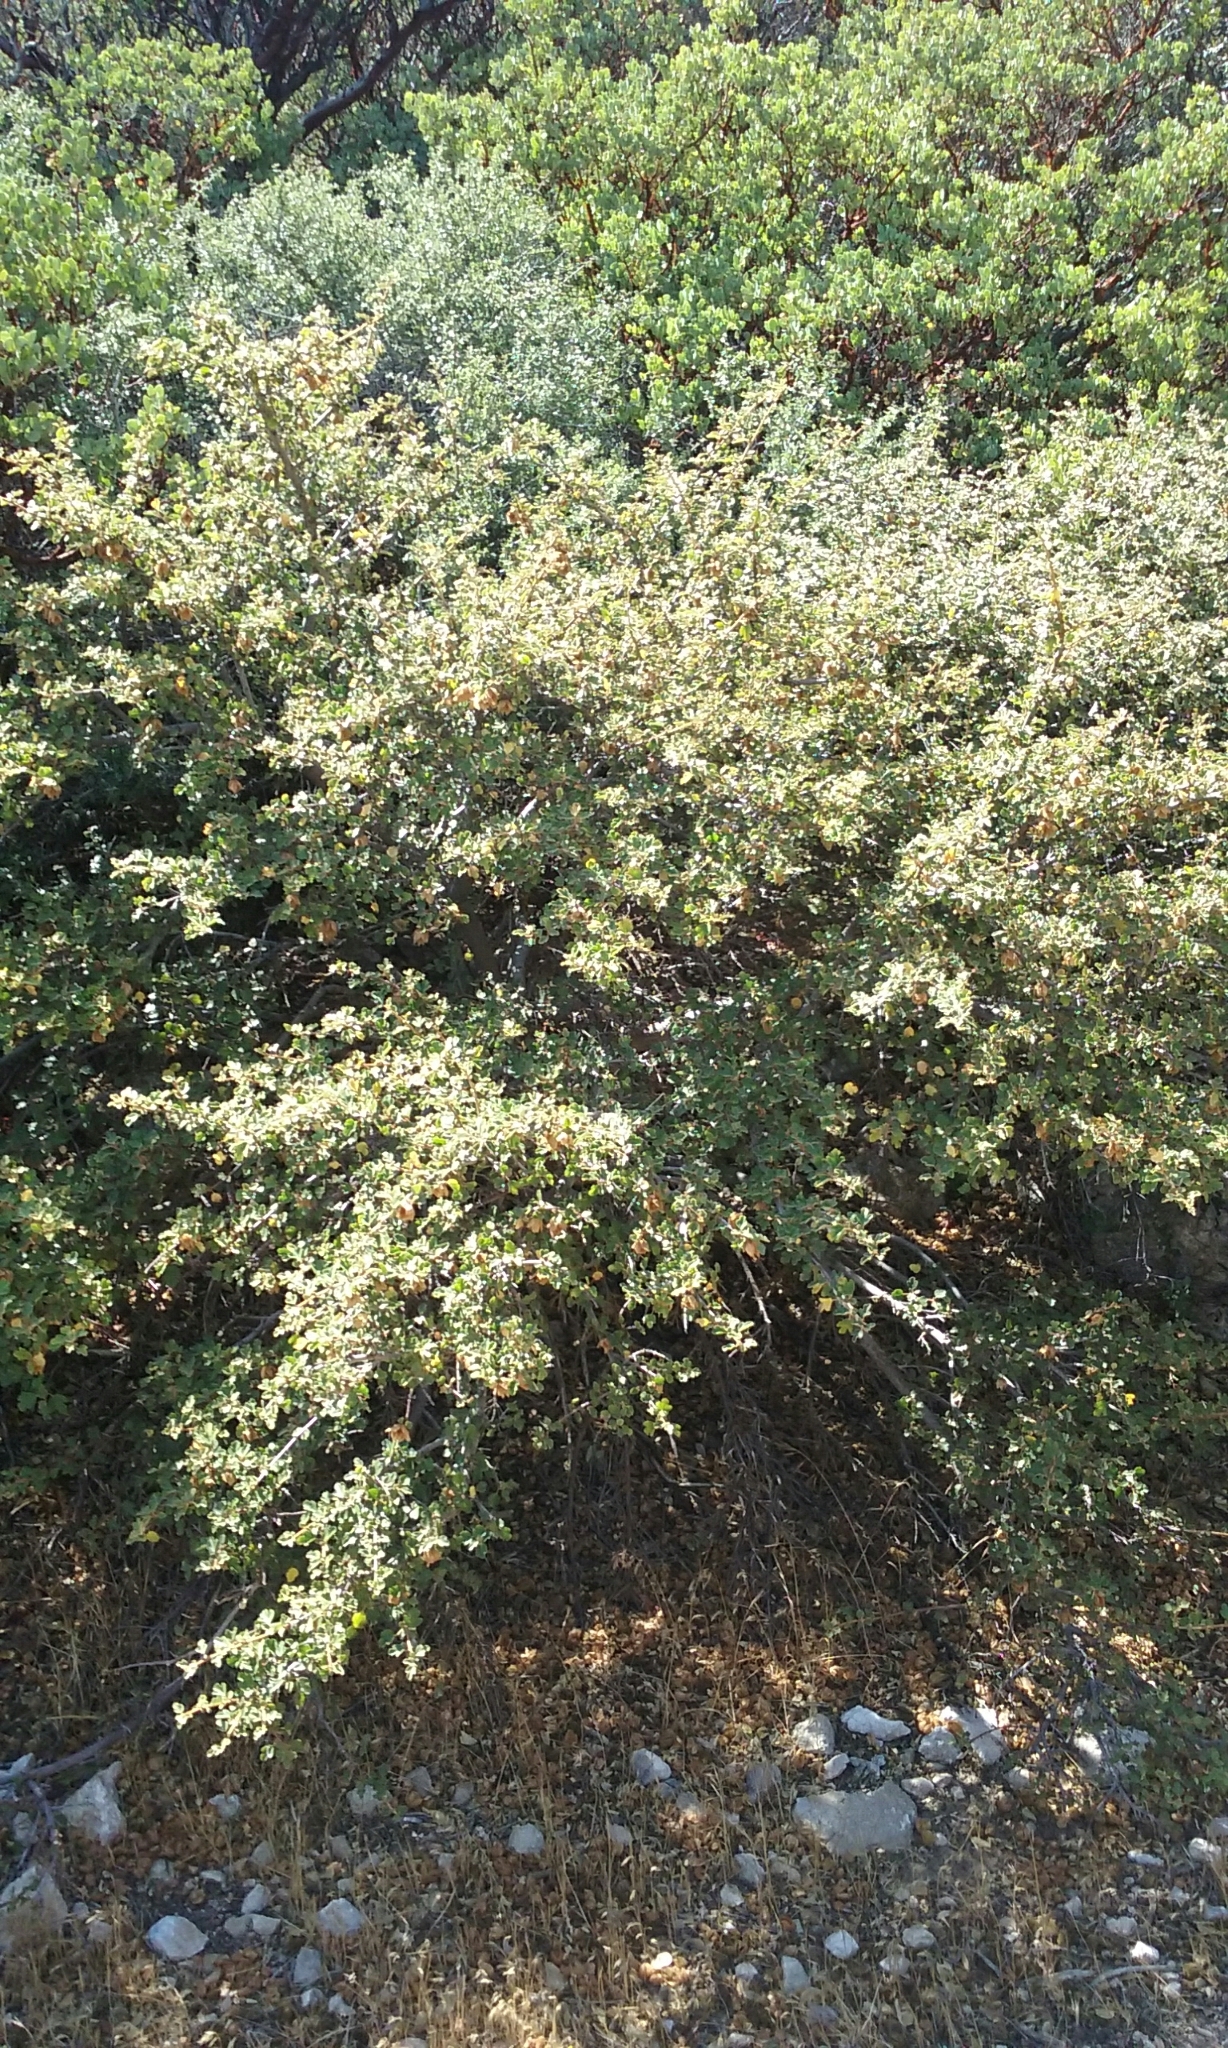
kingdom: Plantae
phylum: Tracheophyta
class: Magnoliopsida
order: Malvales
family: Malvaceae
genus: Fremontodendron
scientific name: Fremontodendron californicum
